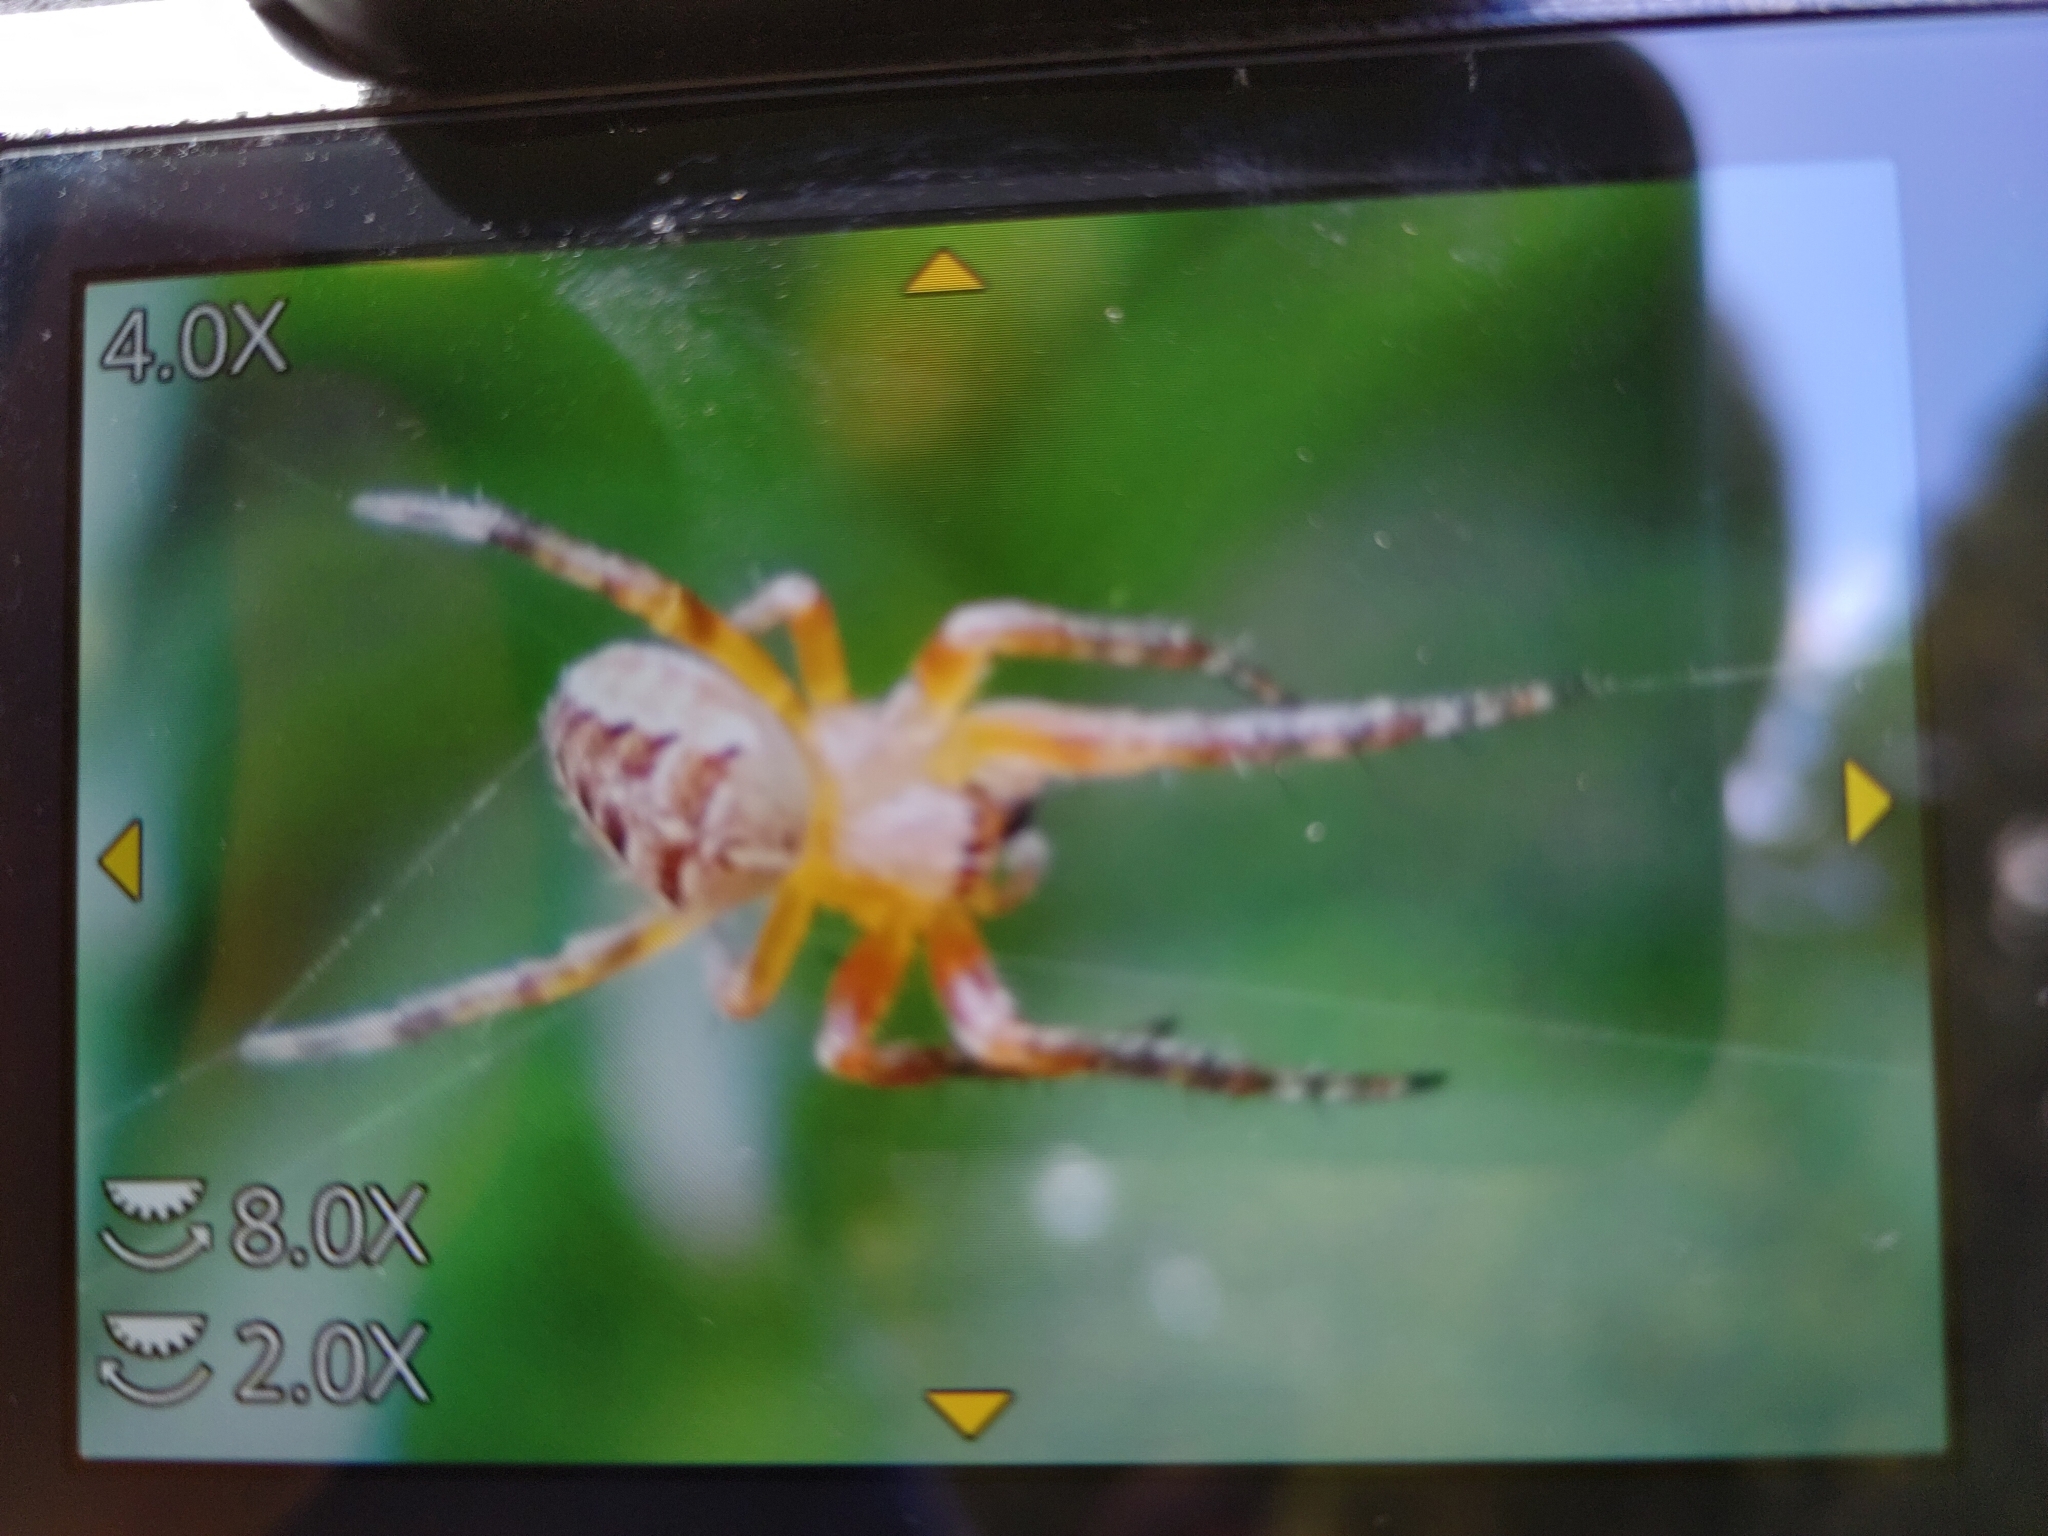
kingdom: Animalia
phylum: Arthropoda
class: Arachnida
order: Araneae
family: Araneidae
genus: Araneus
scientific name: Araneus diadematus
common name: Cross orbweaver
